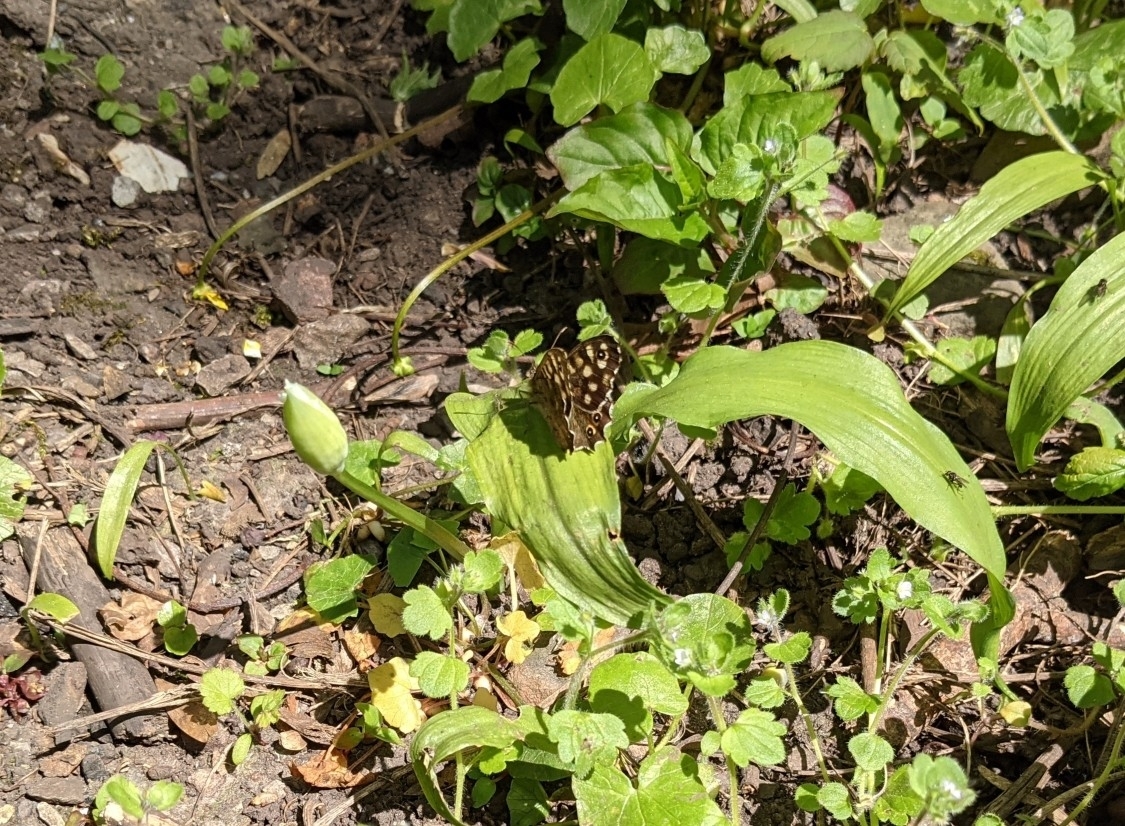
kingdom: Animalia
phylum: Arthropoda
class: Insecta
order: Lepidoptera
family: Nymphalidae
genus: Pararge
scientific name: Pararge aegeria
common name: Speckled wood
